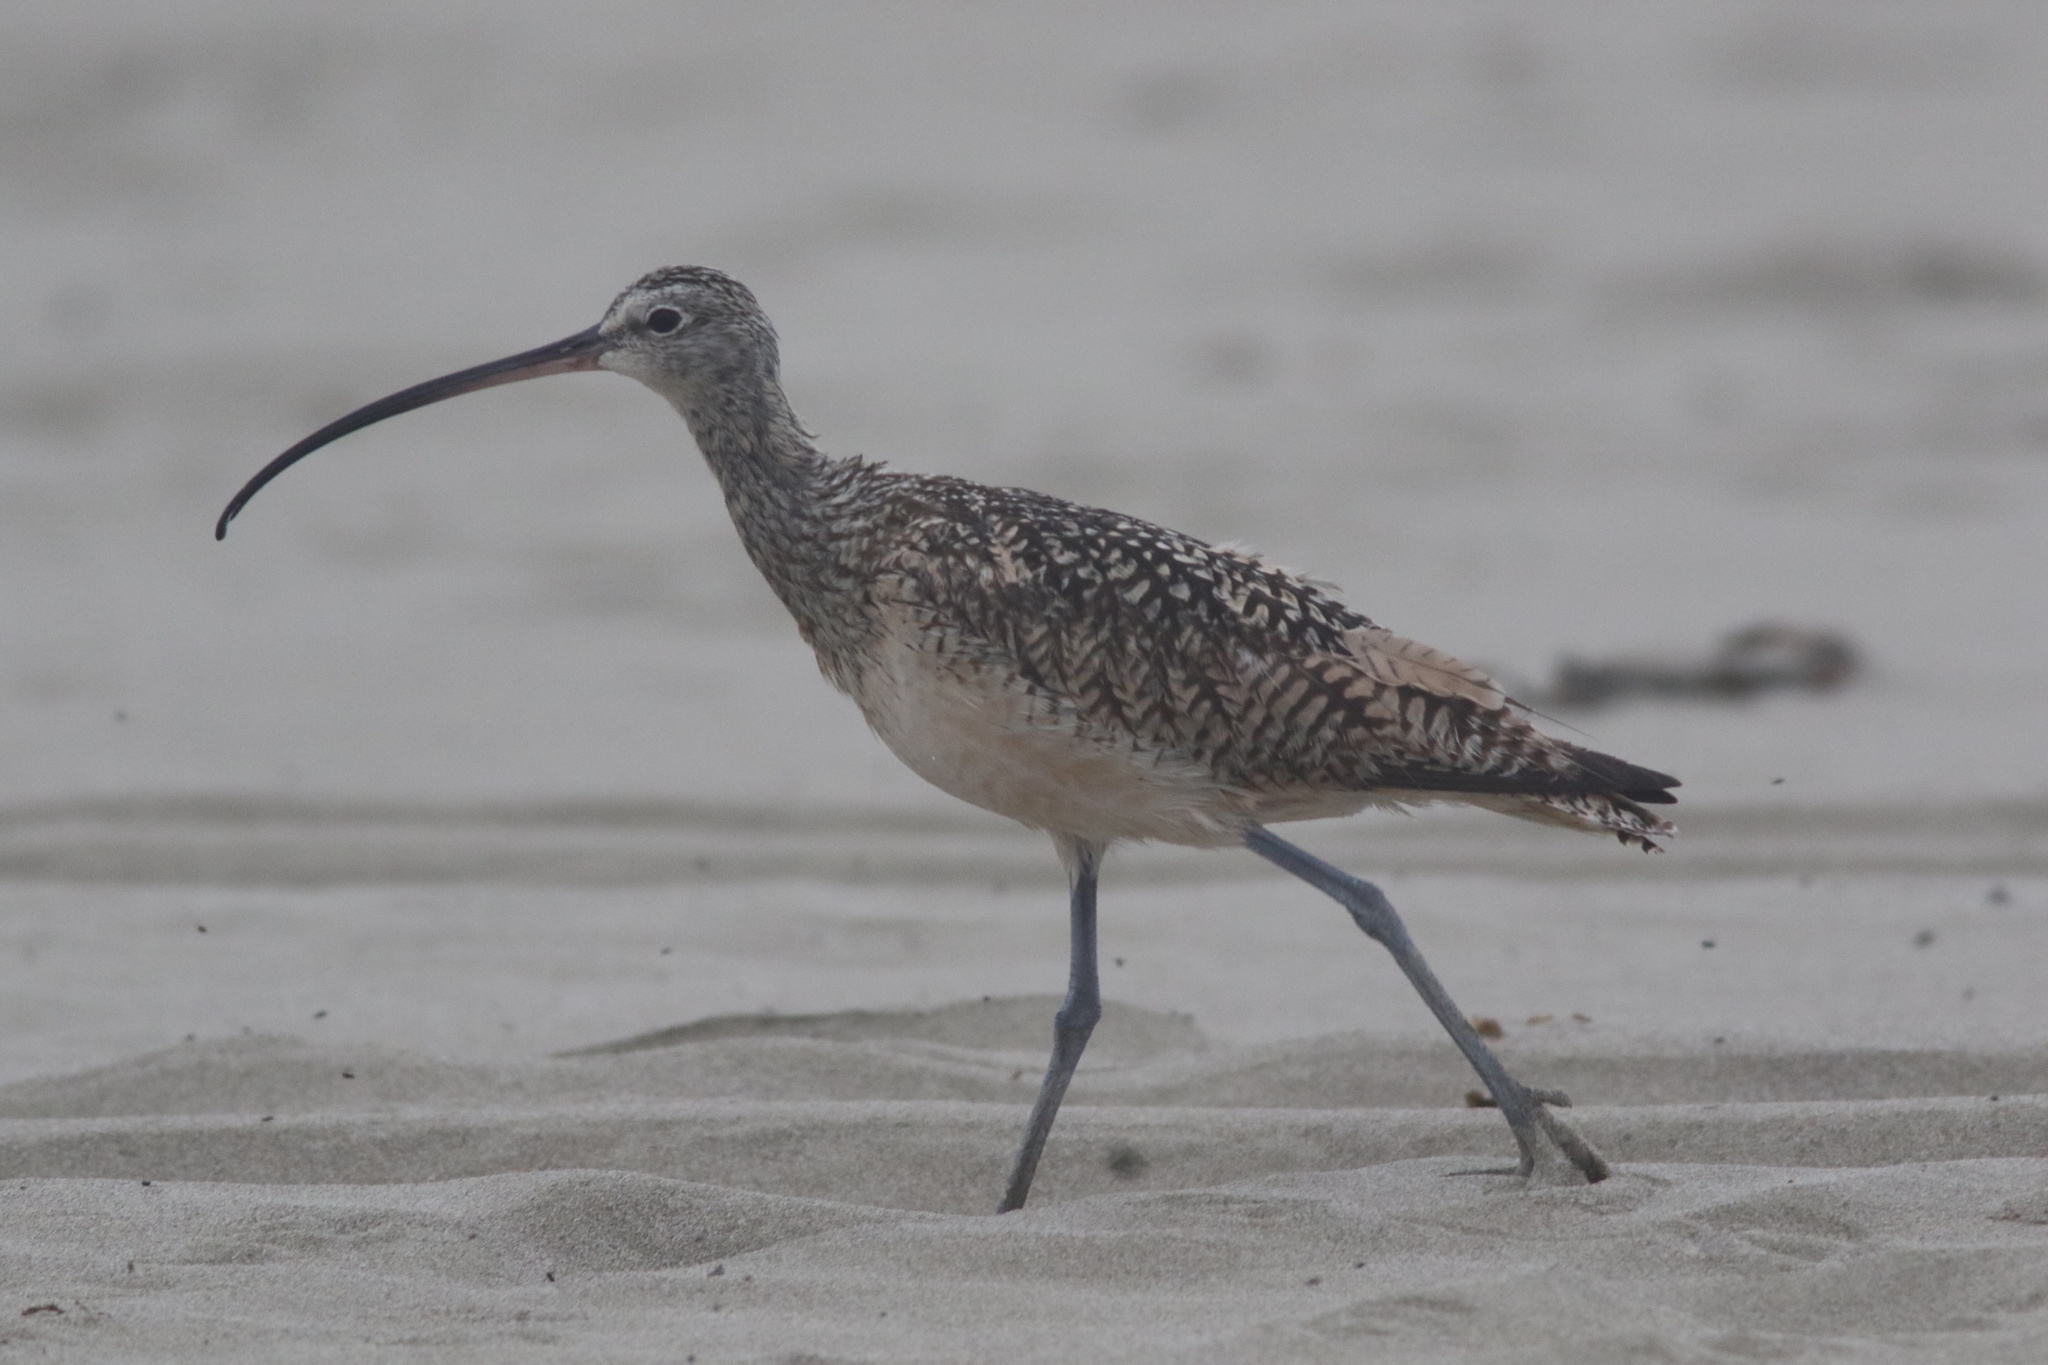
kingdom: Animalia
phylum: Chordata
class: Aves
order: Charadriiformes
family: Scolopacidae
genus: Numenius
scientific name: Numenius americanus
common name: Long-billed curlew
